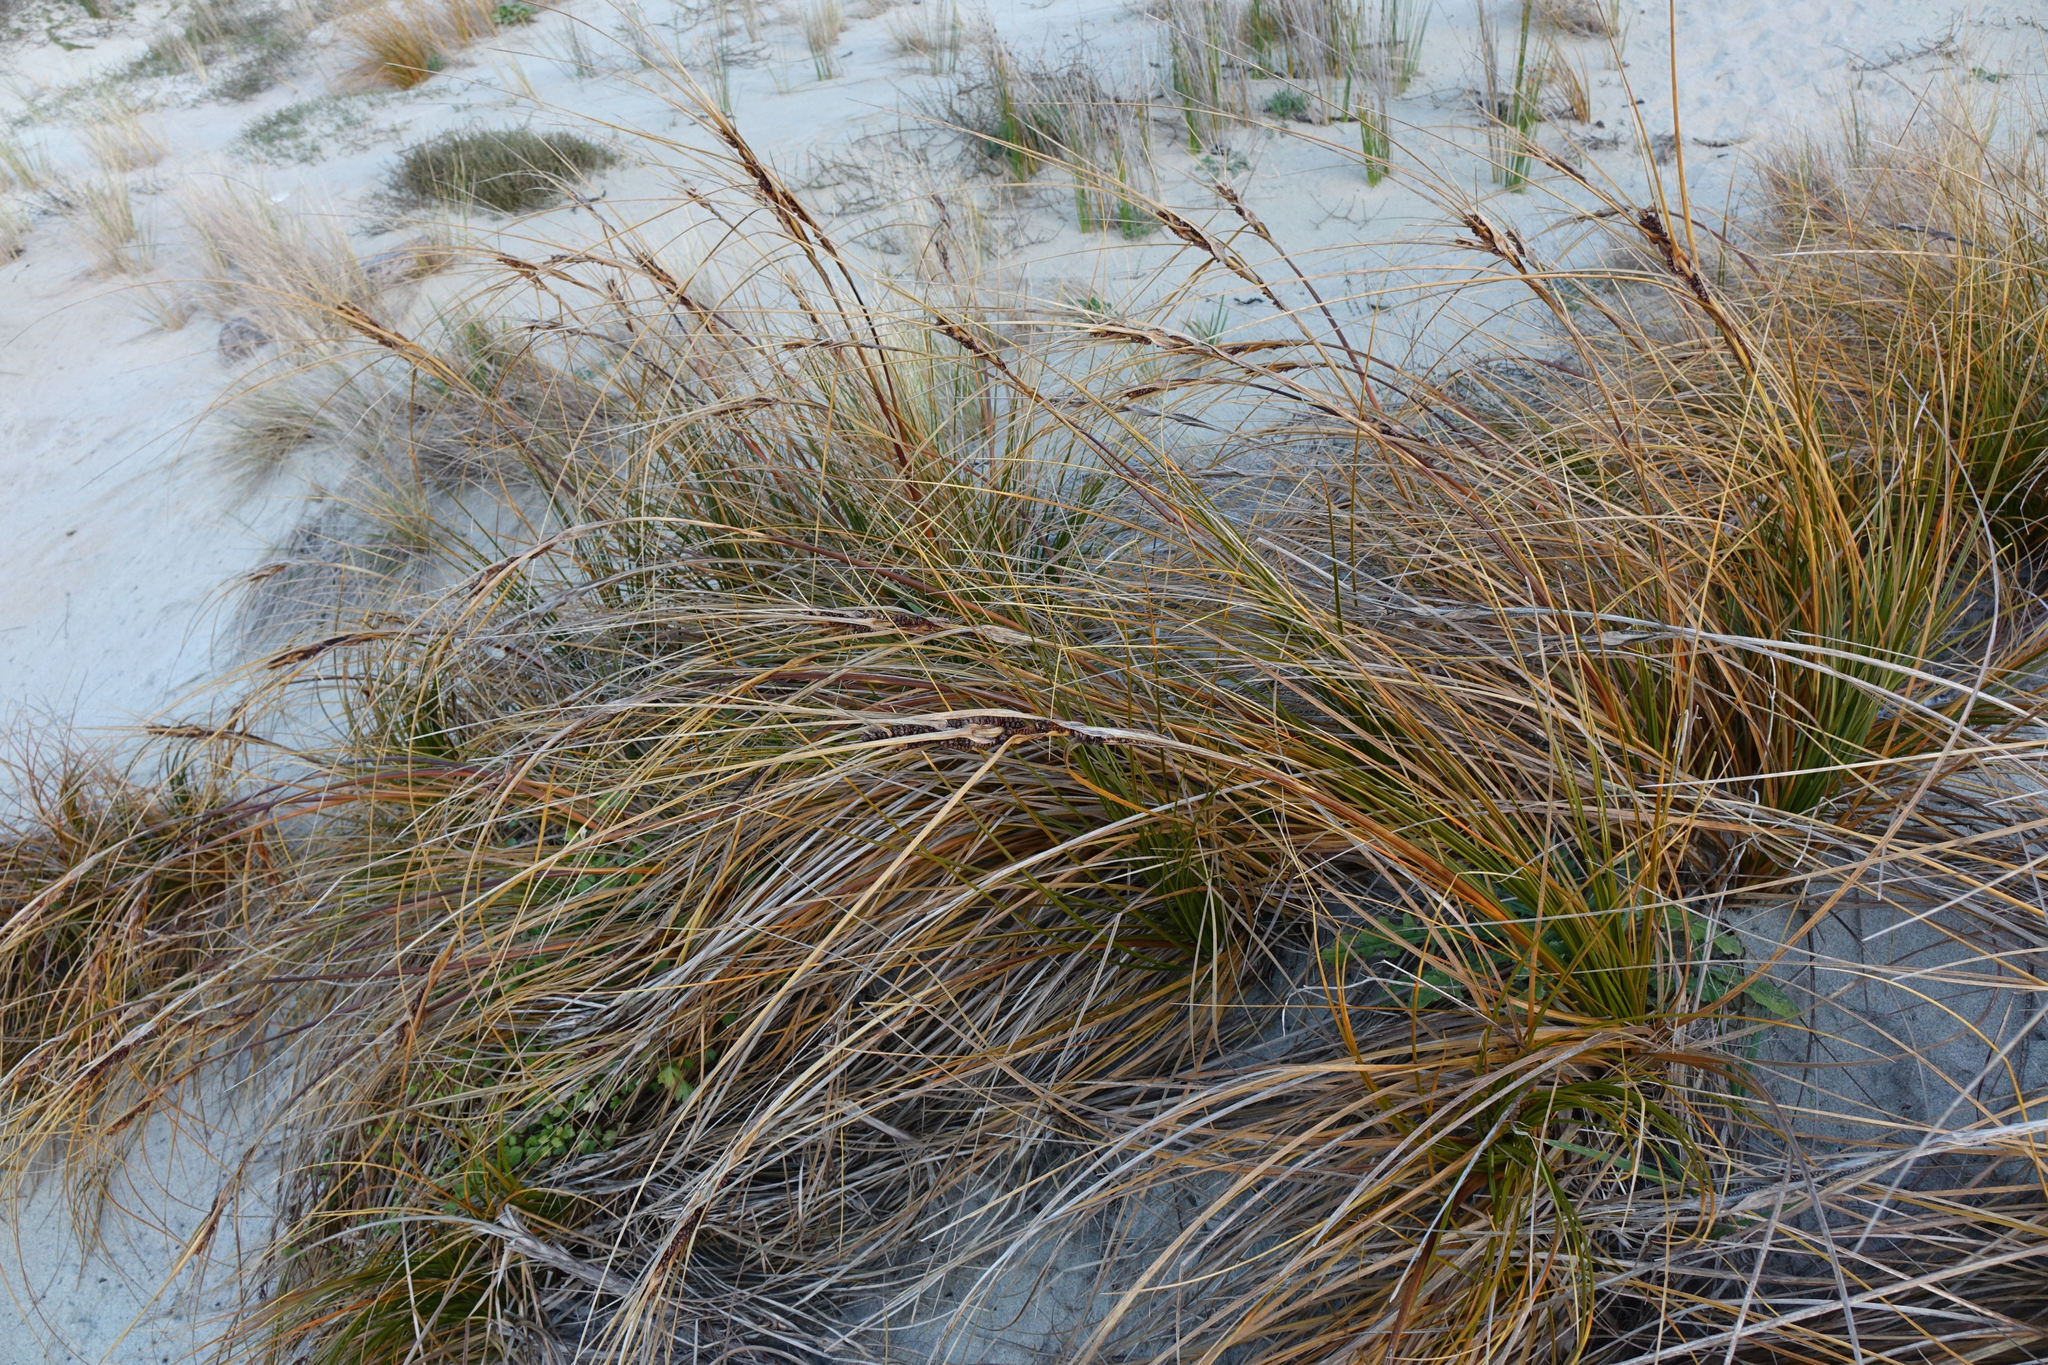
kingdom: Plantae
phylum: Tracheophyta
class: Liliopsida
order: Poales
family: Cyperaceae
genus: Ficinia
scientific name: Ficinia spiralis
